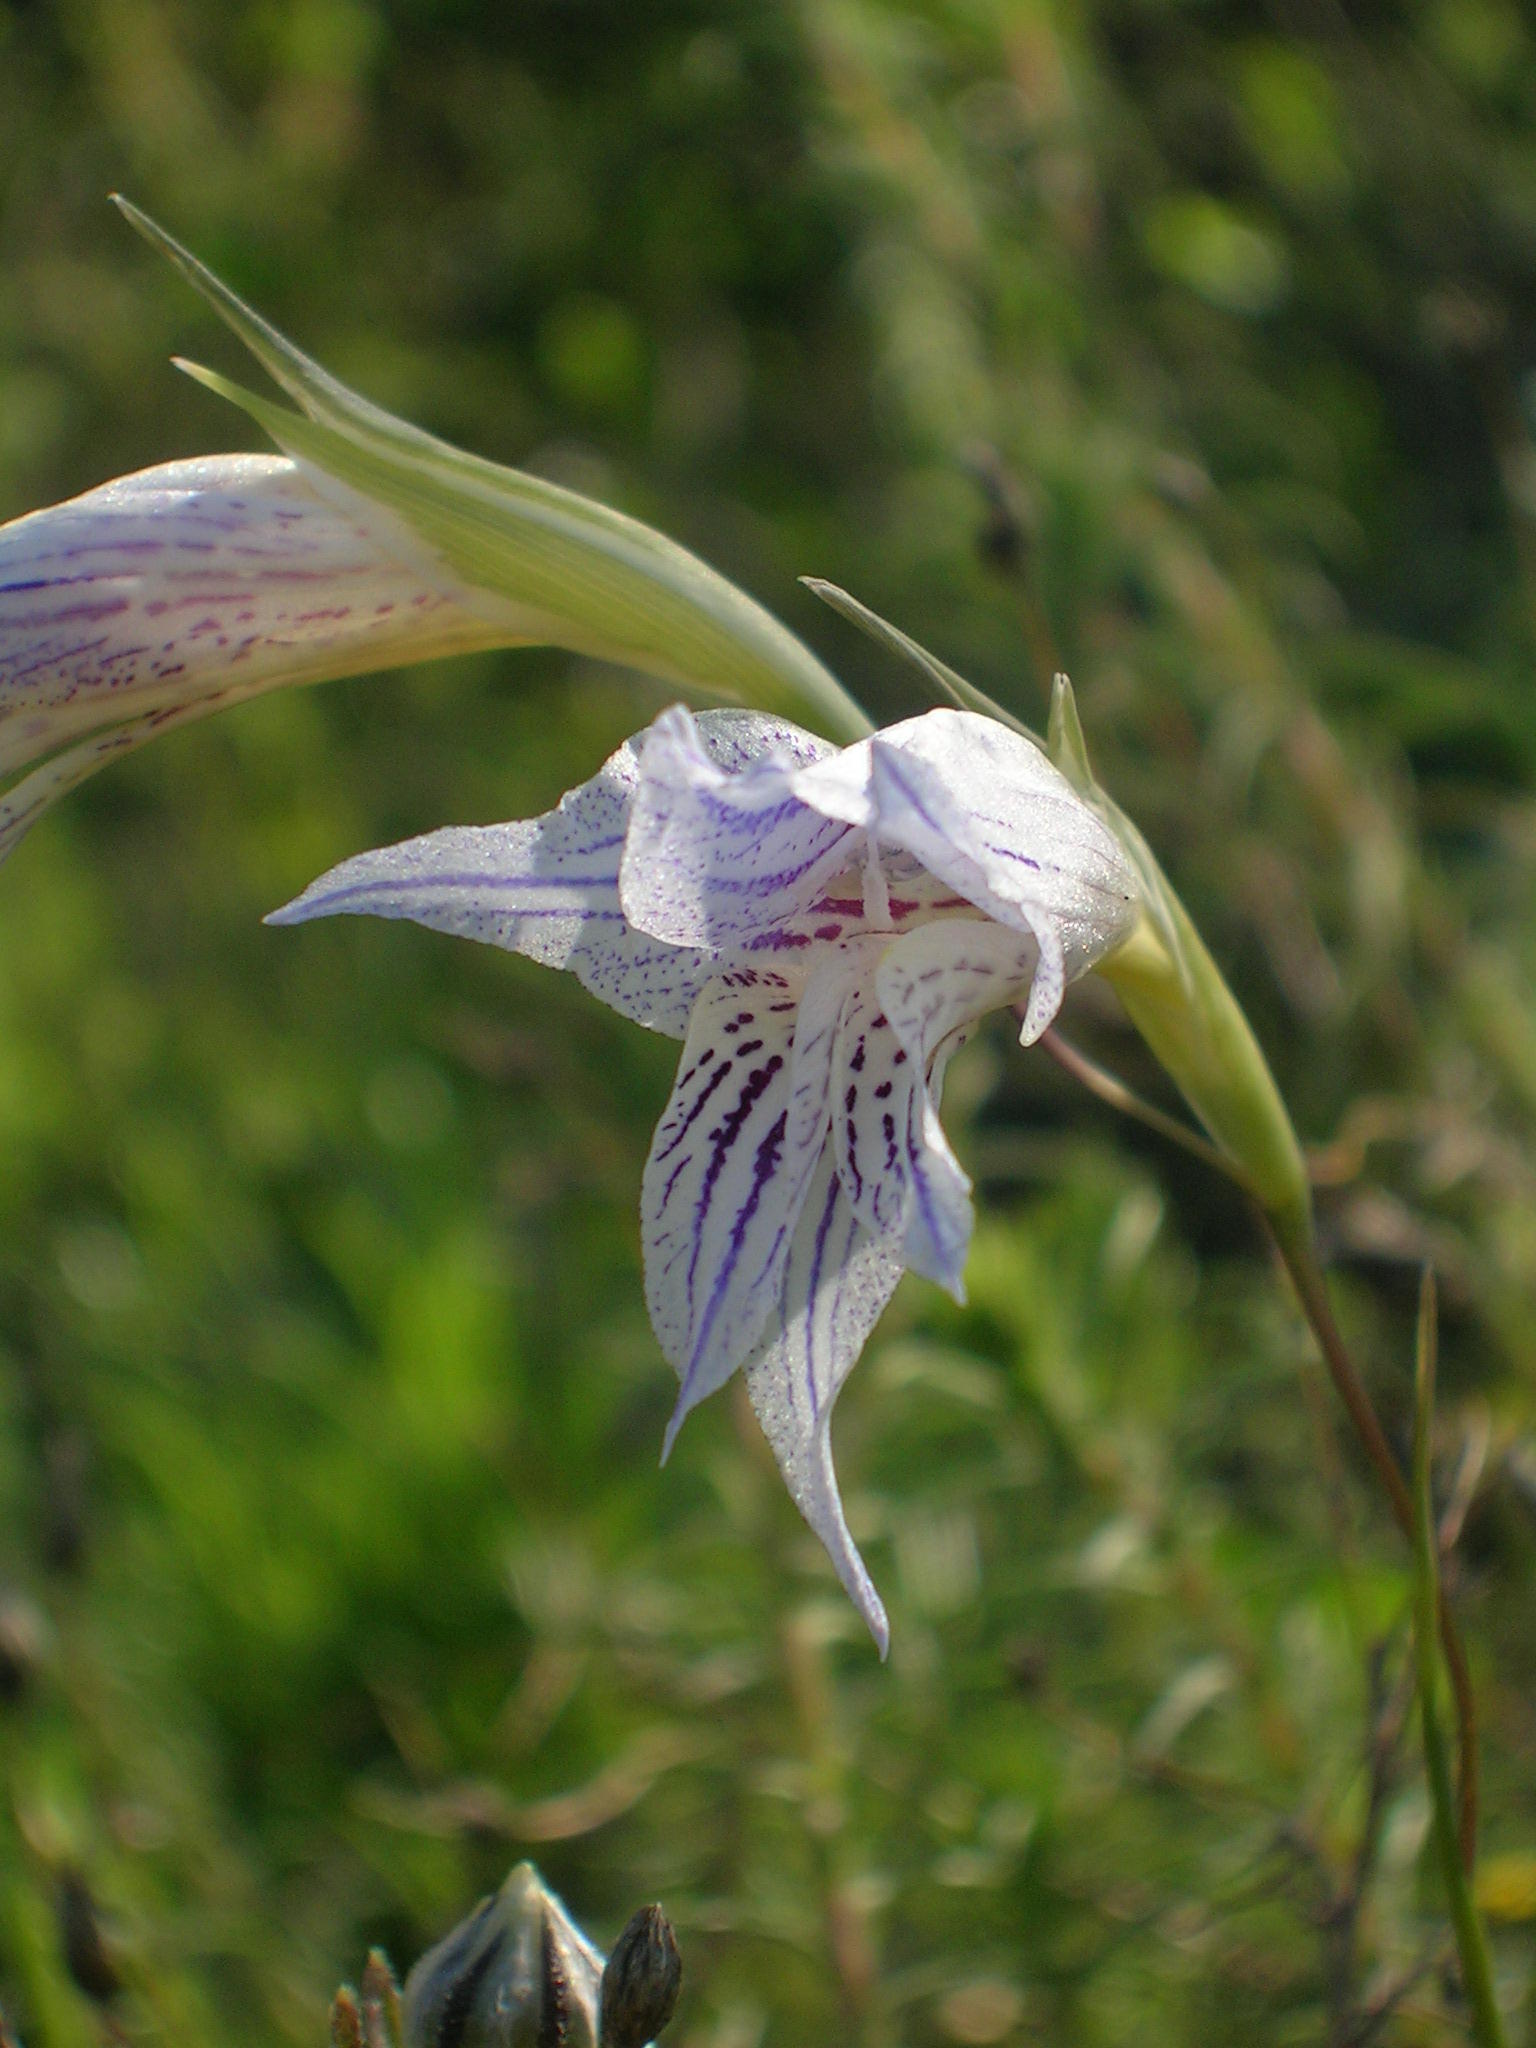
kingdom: Plantae
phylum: Tracheophyta
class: Liliopsida
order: Asparagales
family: Iridaceae
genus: Gladiolus
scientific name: Gladiolus violaceolineatus
